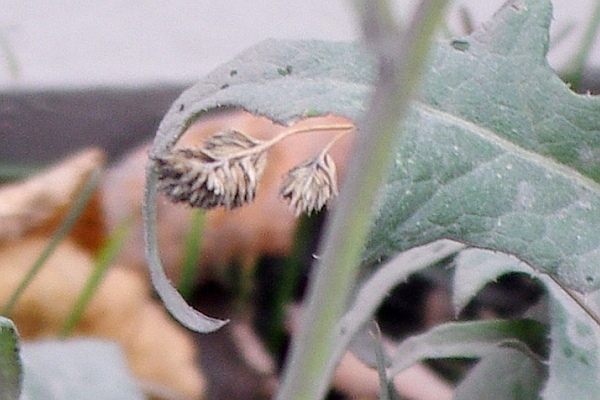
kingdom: Plantae
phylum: Tracheophyta
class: Liliopsida
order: Poales
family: Poaceae
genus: Dactylis
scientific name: Dactylis glomerata
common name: Orchardgrass
